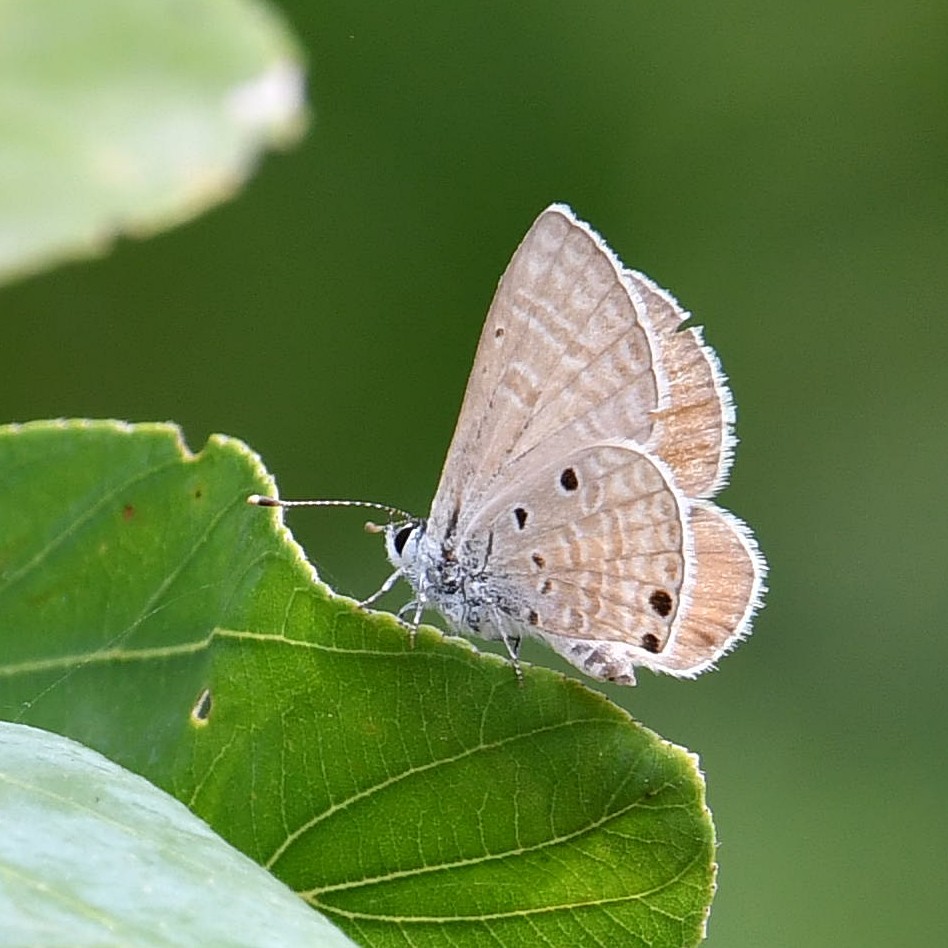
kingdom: Animalia
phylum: Arthropoda
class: Insecta
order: Lepidoptera
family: Lycaenidae
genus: Azanus
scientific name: Azanus ubaldus
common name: Desert babul blue
